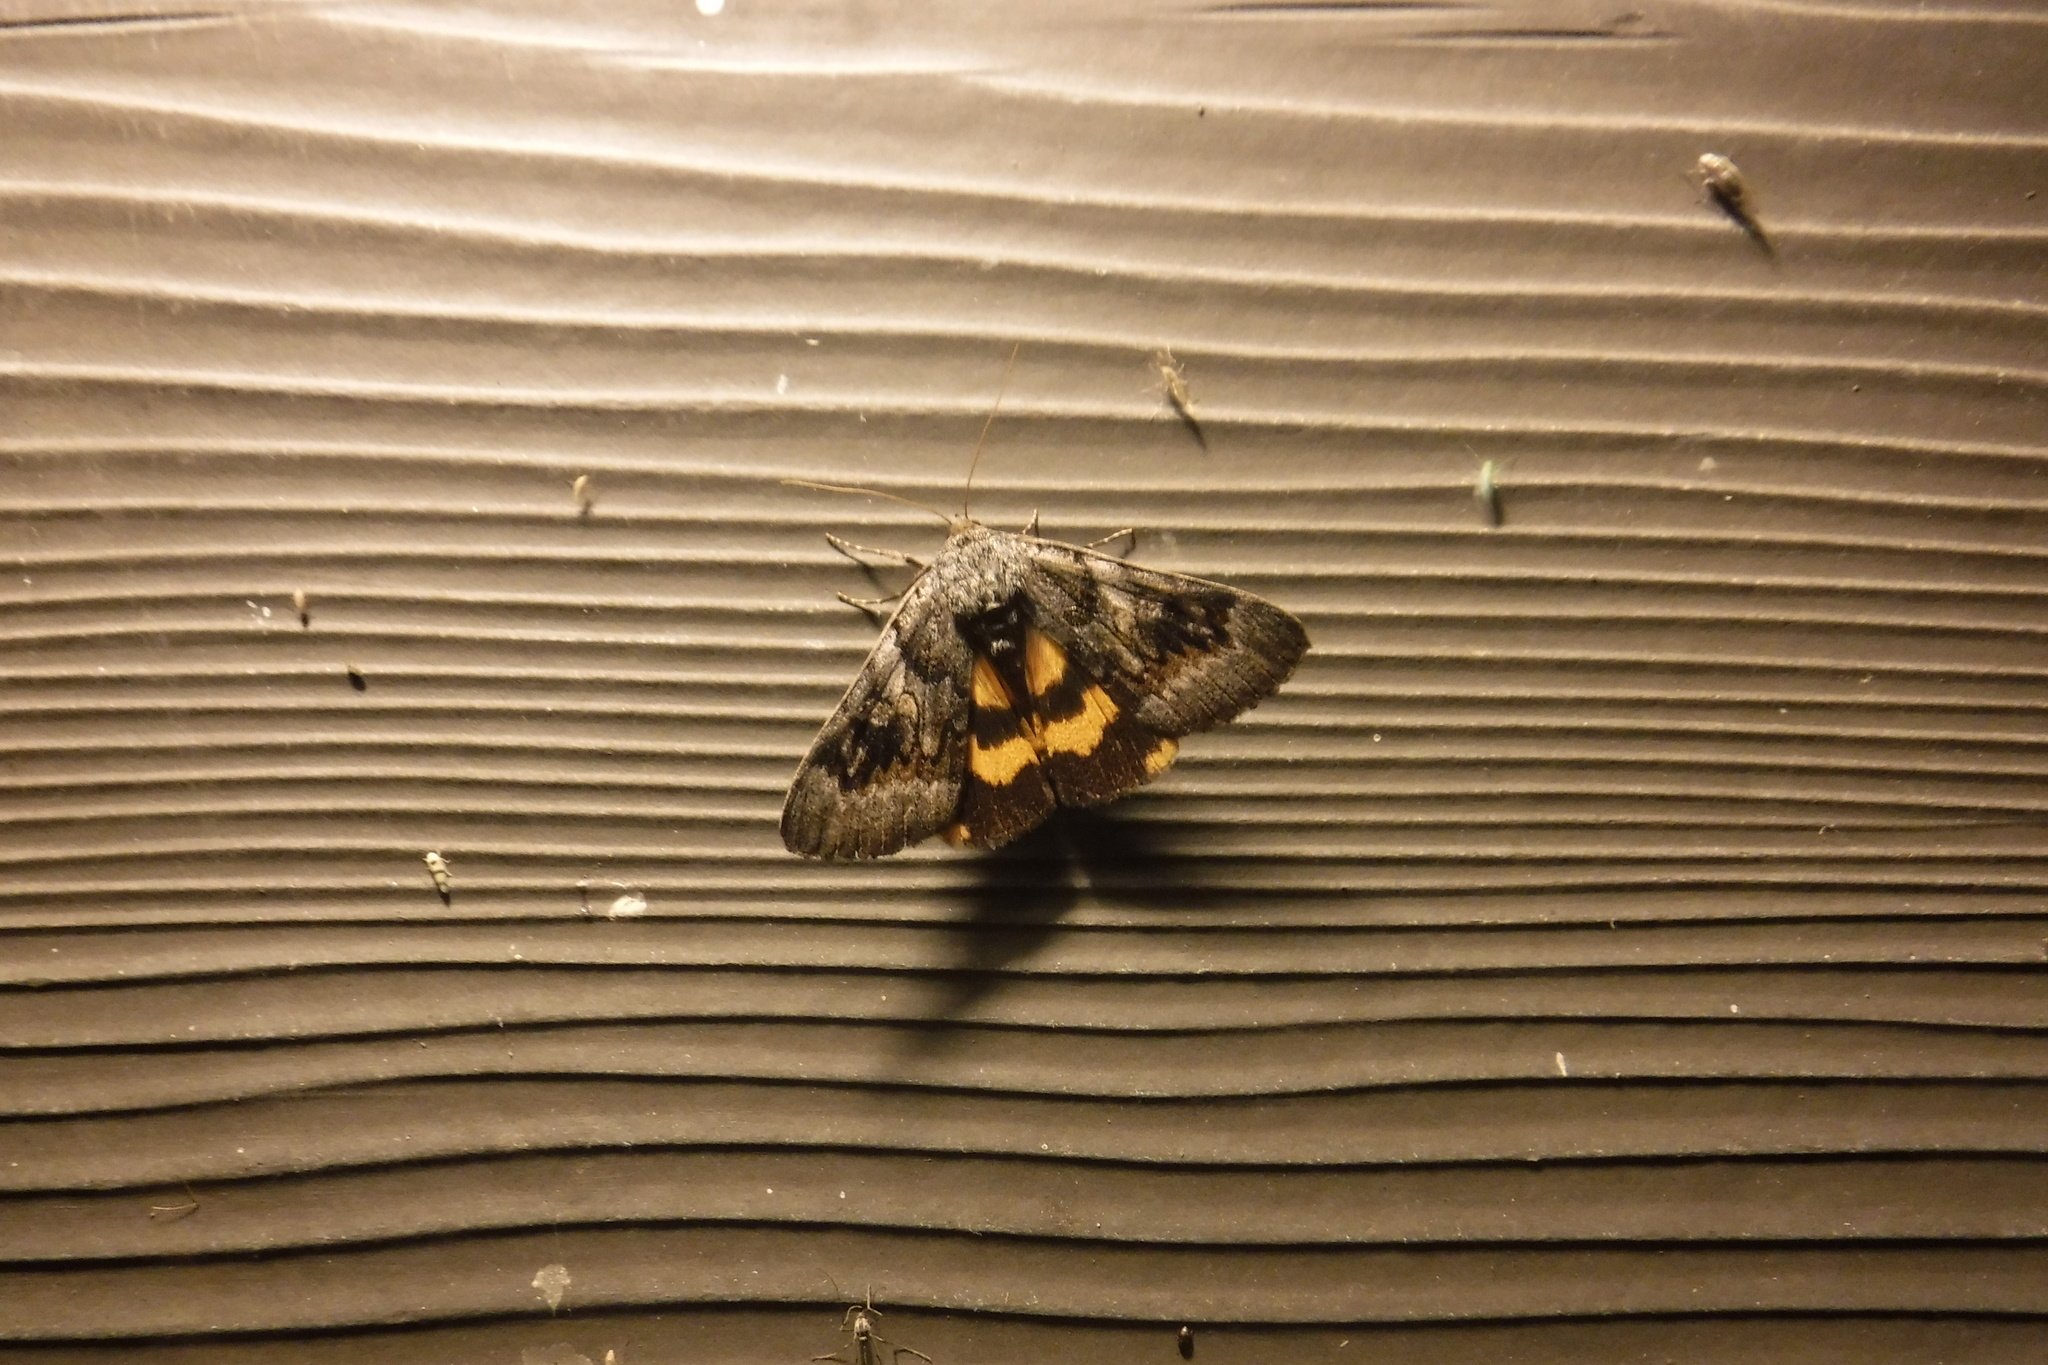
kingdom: Animalia
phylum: Arthropoda
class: Insecta
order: Lepidoptera
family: Erebidae
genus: Catocala
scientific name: Catocala badia
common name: Bay underwing
